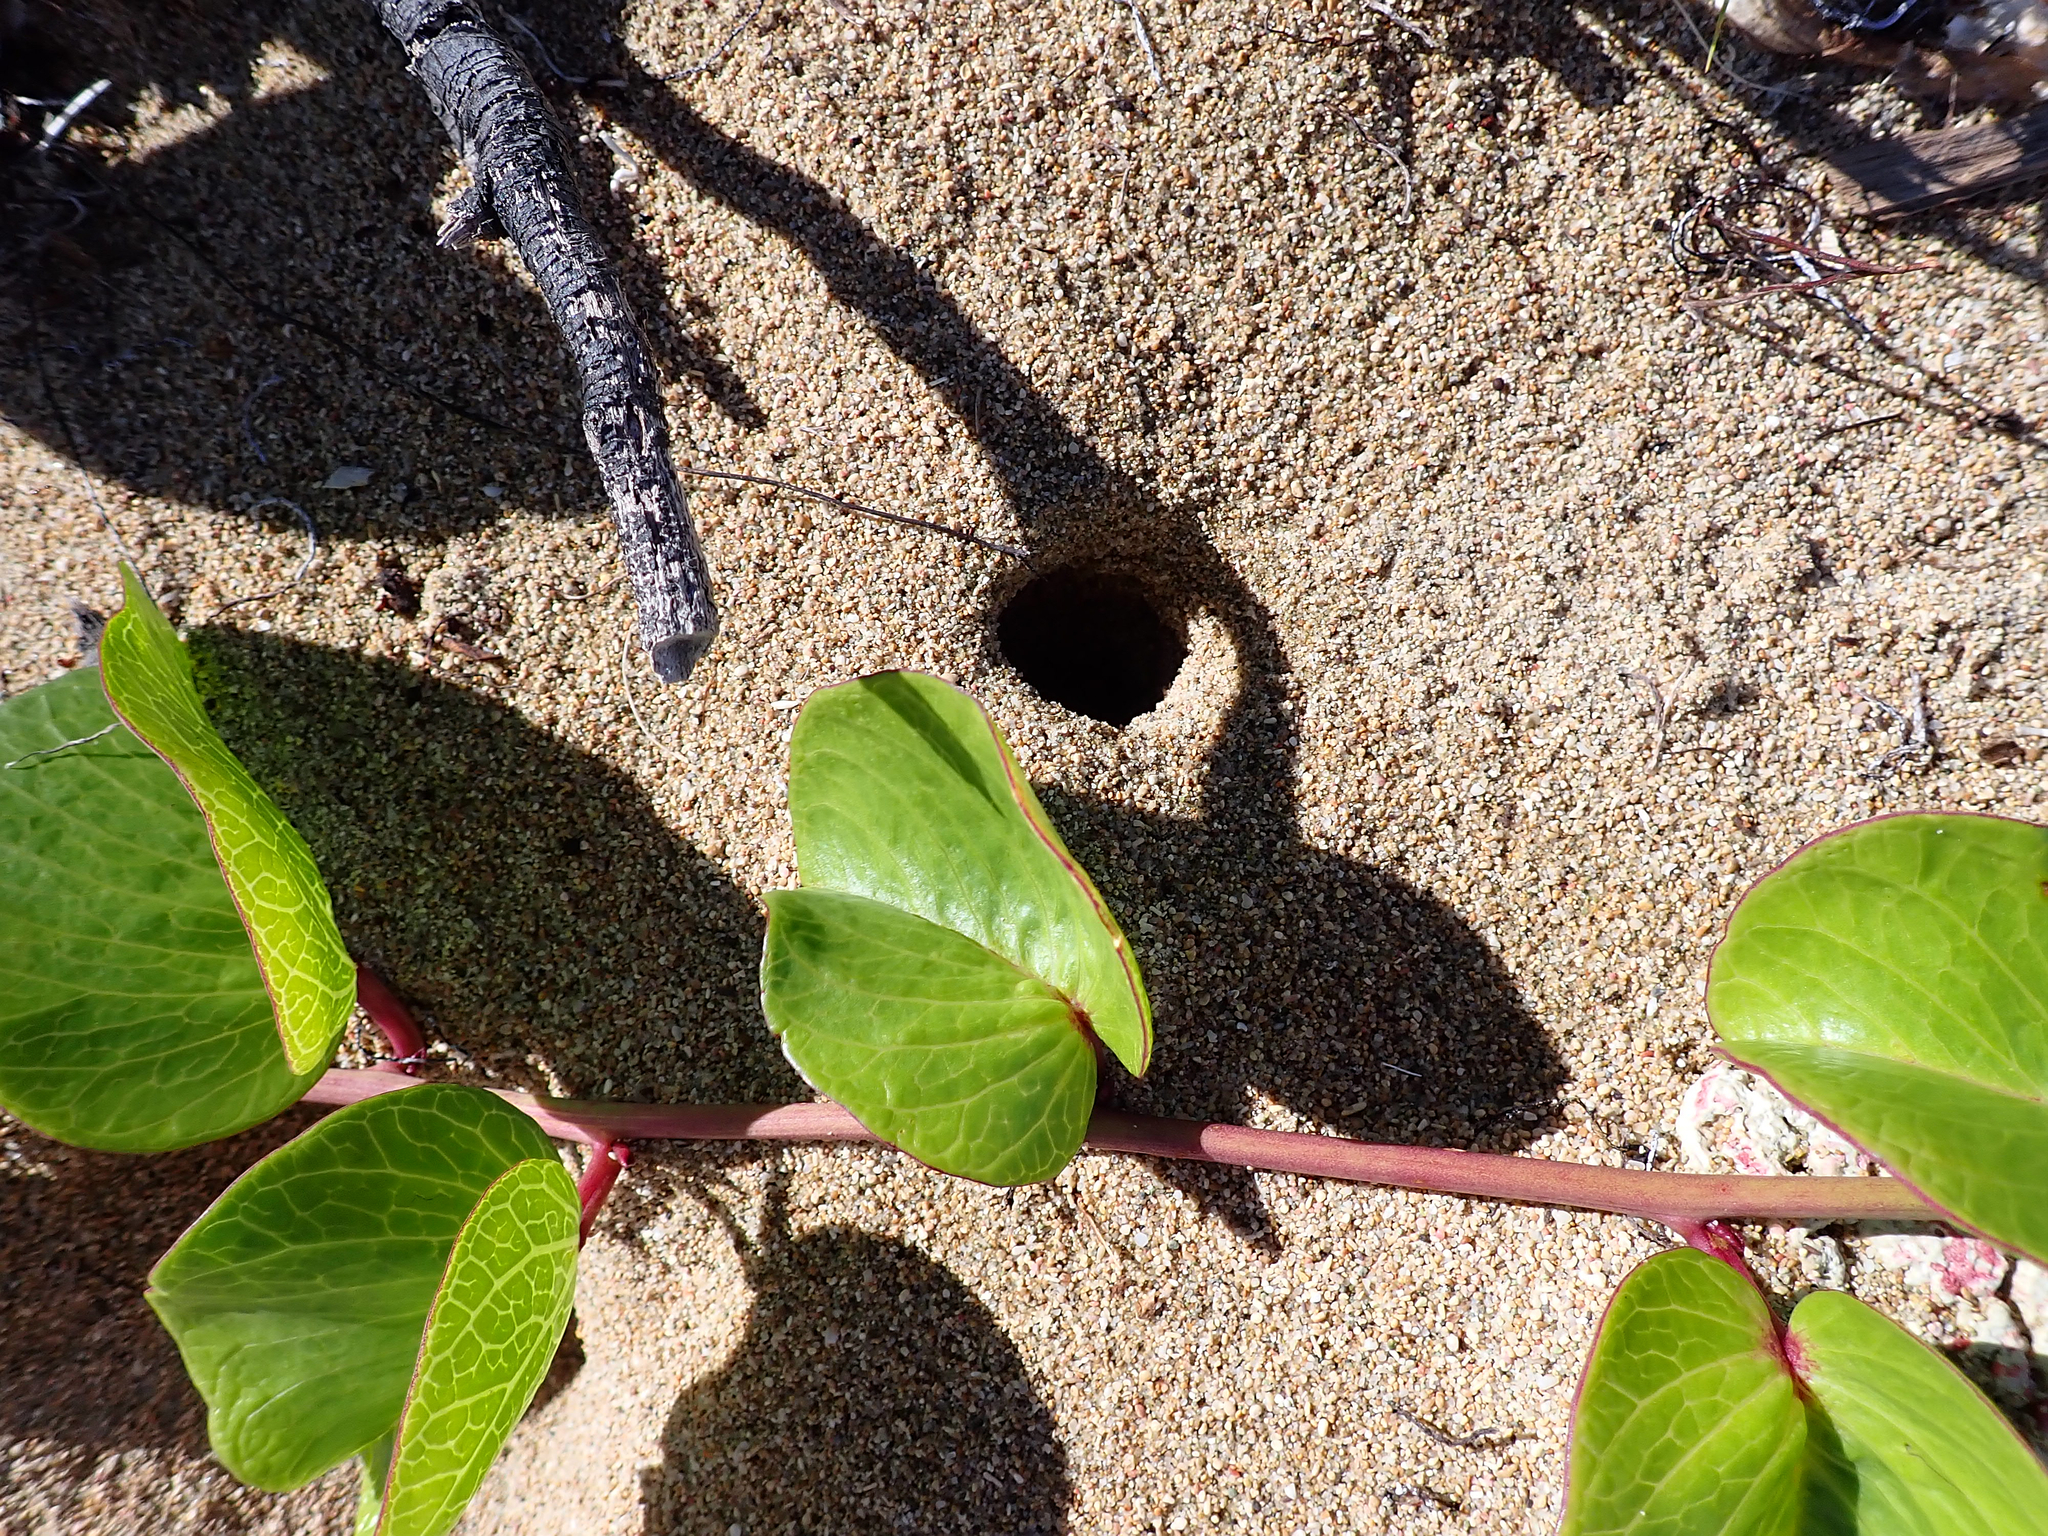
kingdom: Plantae
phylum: Tracheophyta
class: Magnoliopsida
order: Solanales
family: Convolvulaceae
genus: Ipomoea
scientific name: Ipomoea pes-caprae
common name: Beach morning glory
